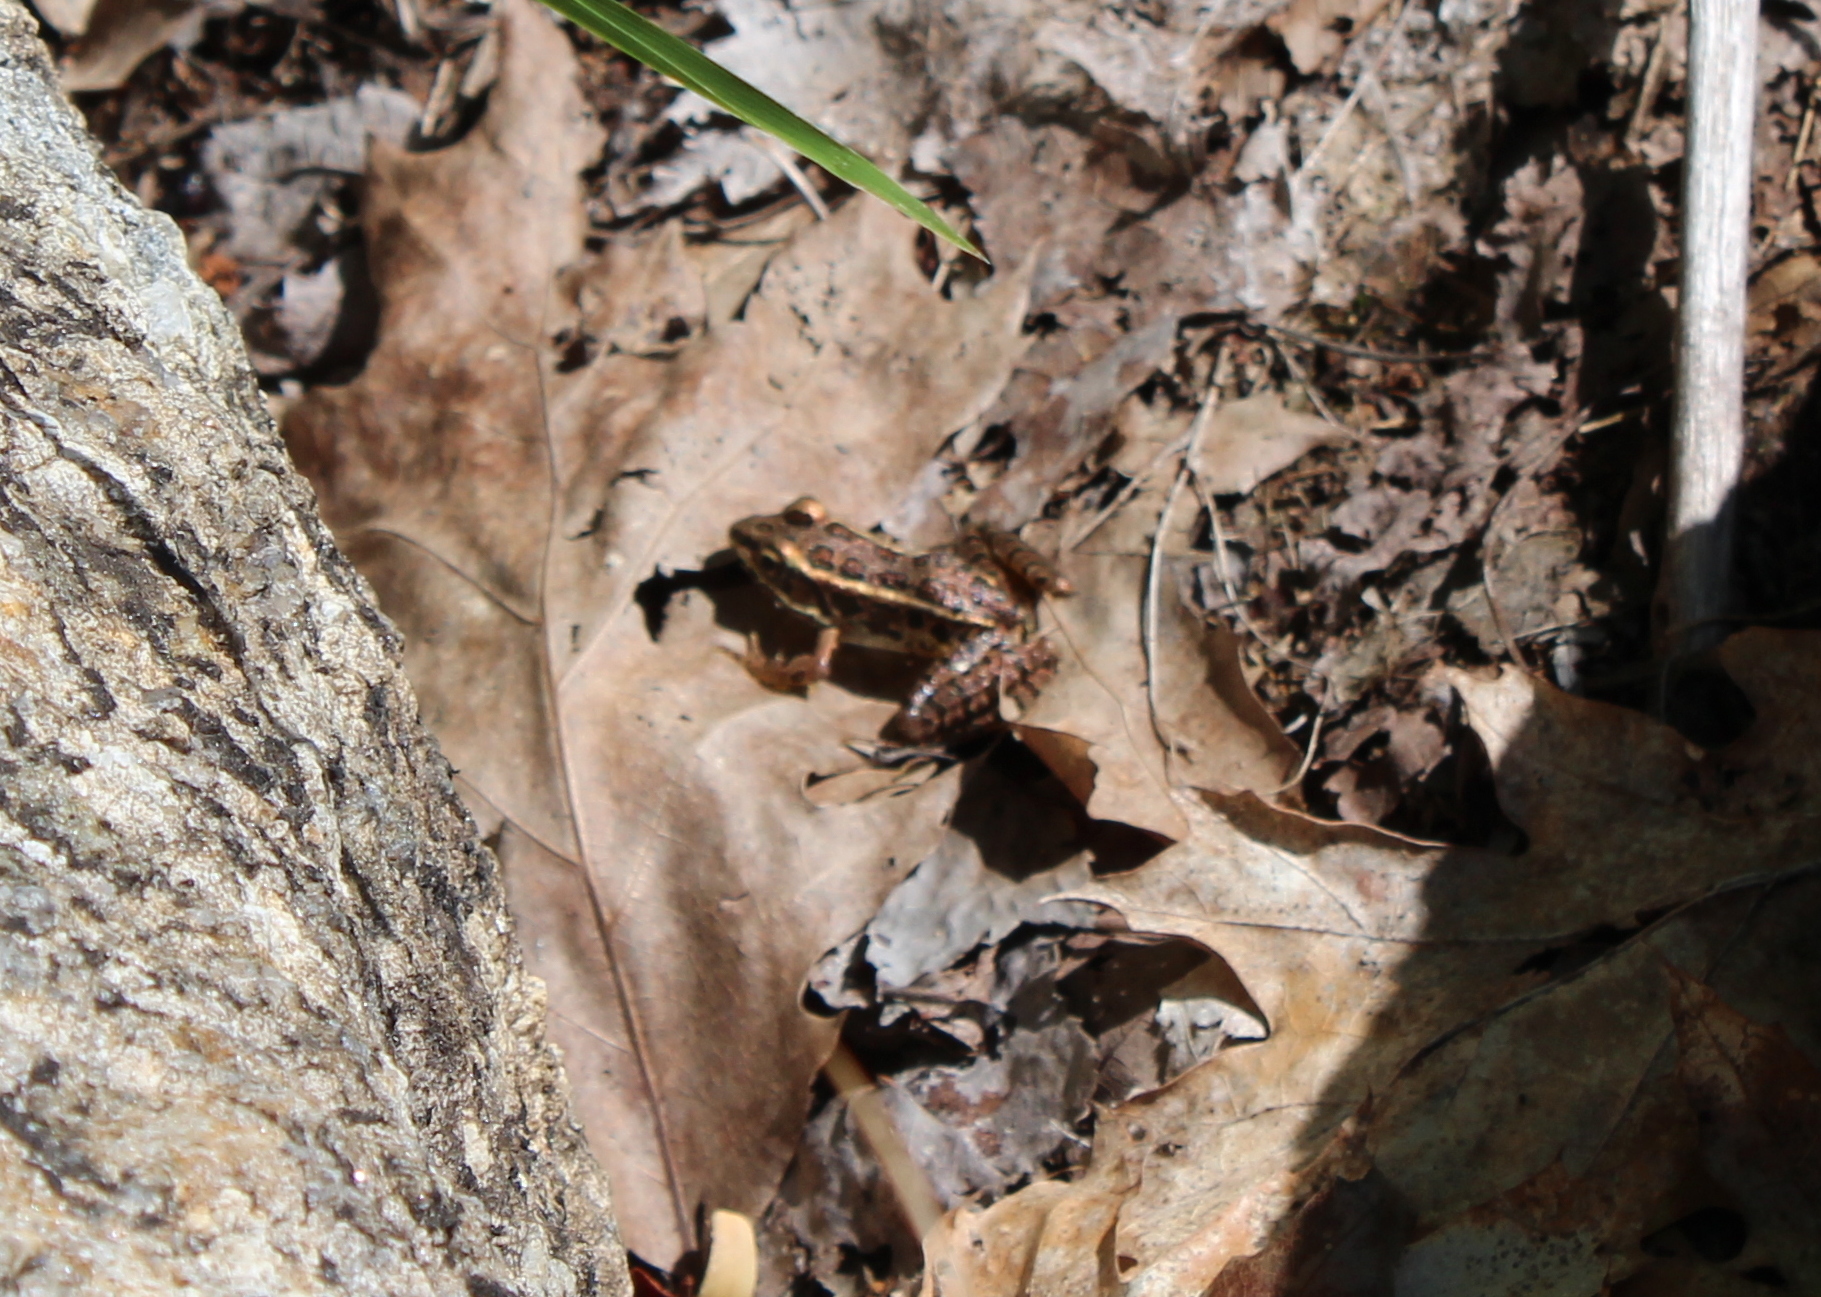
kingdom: Animalia
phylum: Chordata
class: Amphibia
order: Anura
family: Ranidae
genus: Lithobates
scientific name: Lithobates palustris
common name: Pickerel frog
